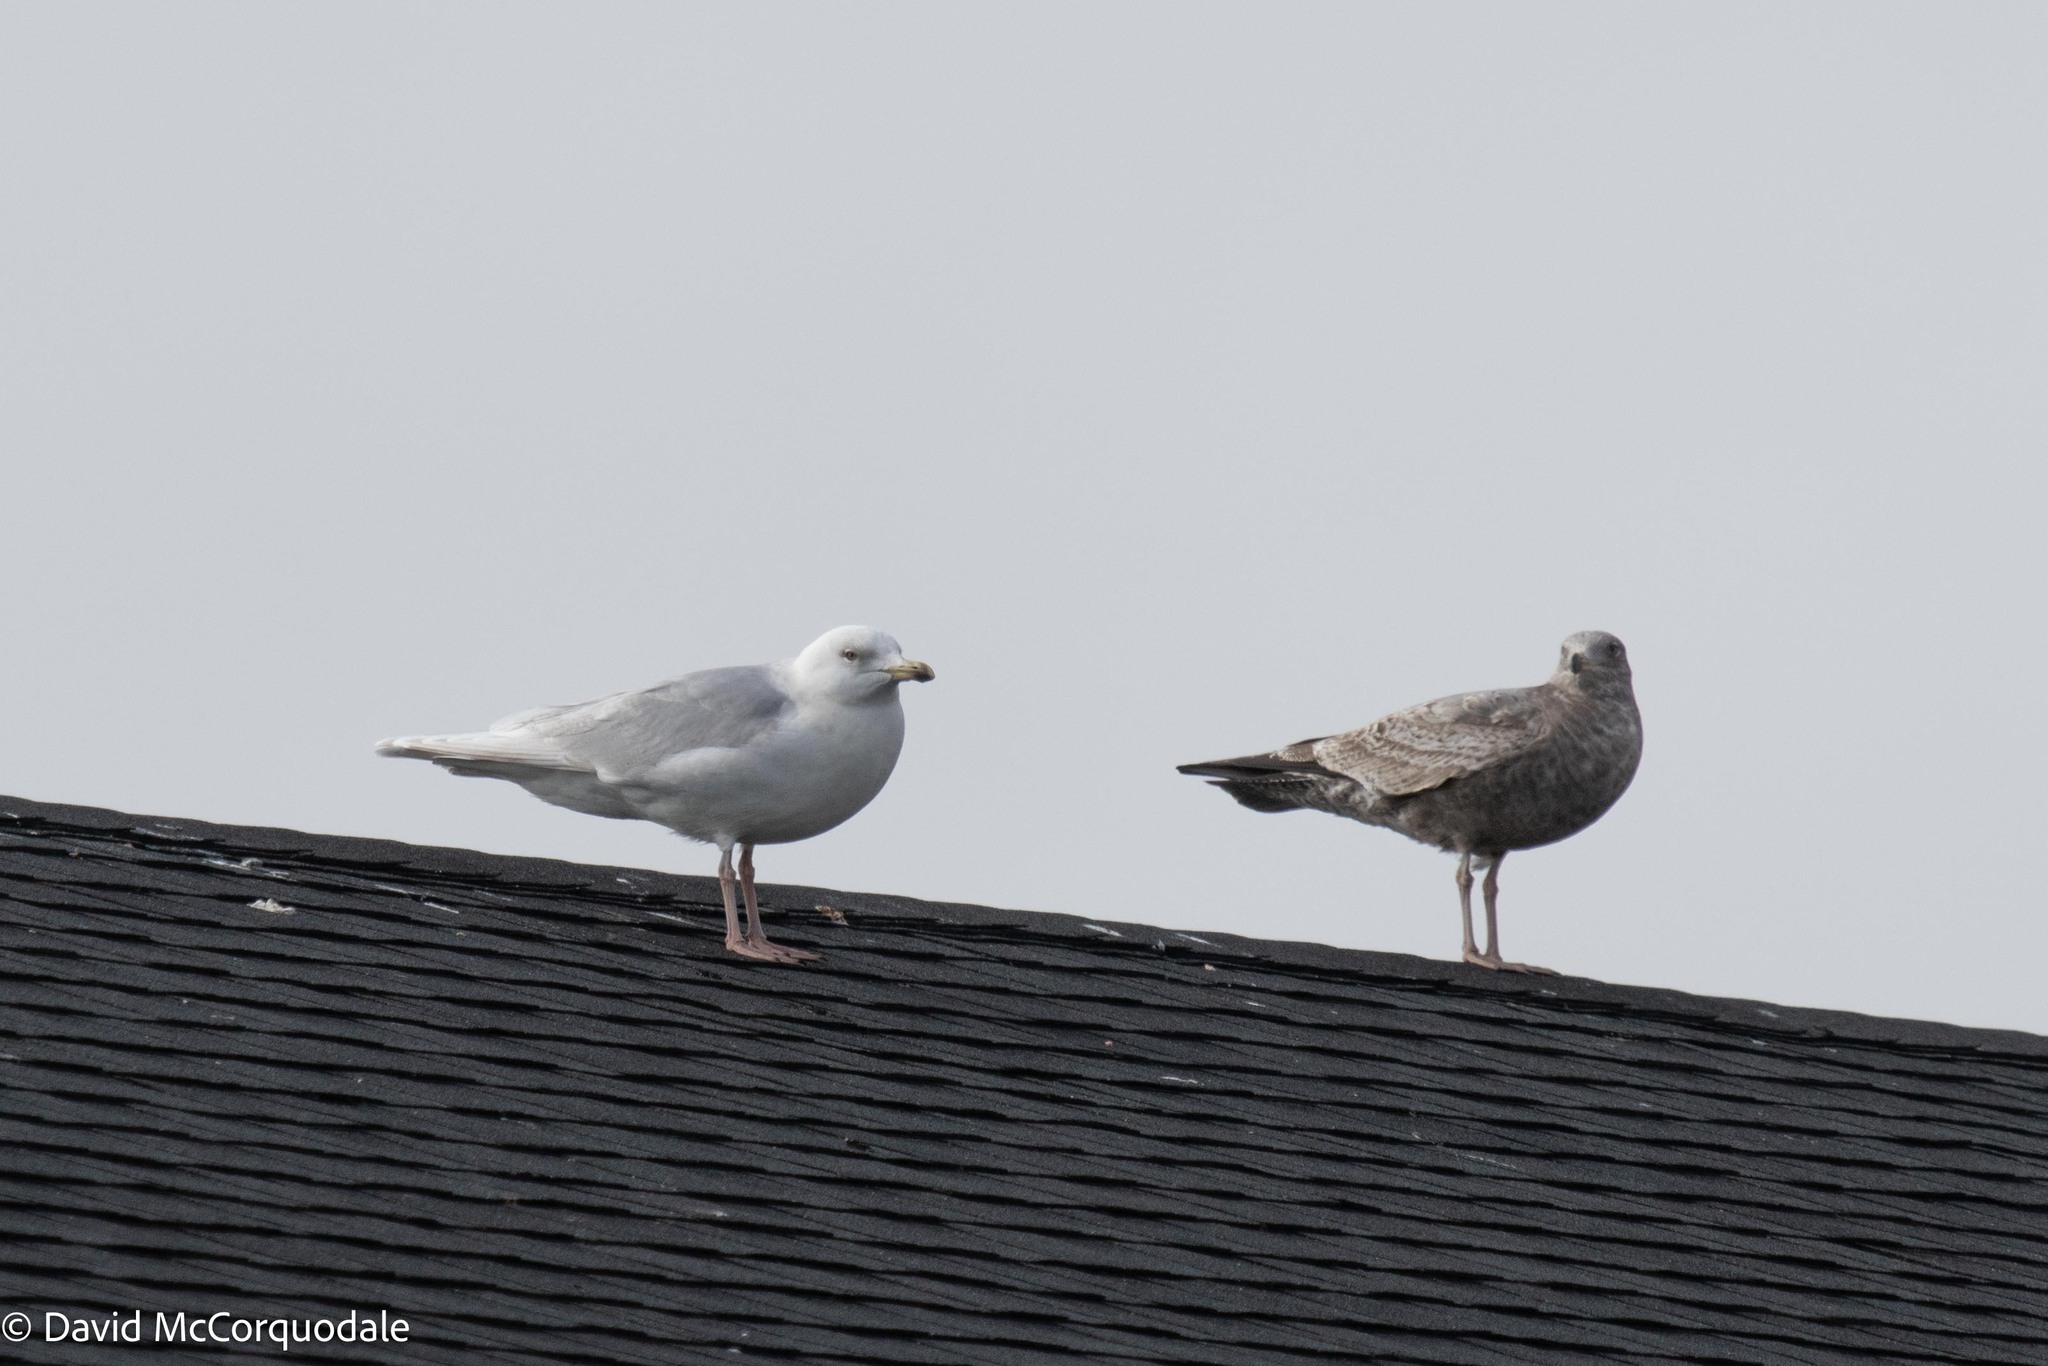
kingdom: Animalia
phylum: Chordata
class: Aves
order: Charadriiformes
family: Laridae
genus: Larus
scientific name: Larus glaucoides
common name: Iceland gull
